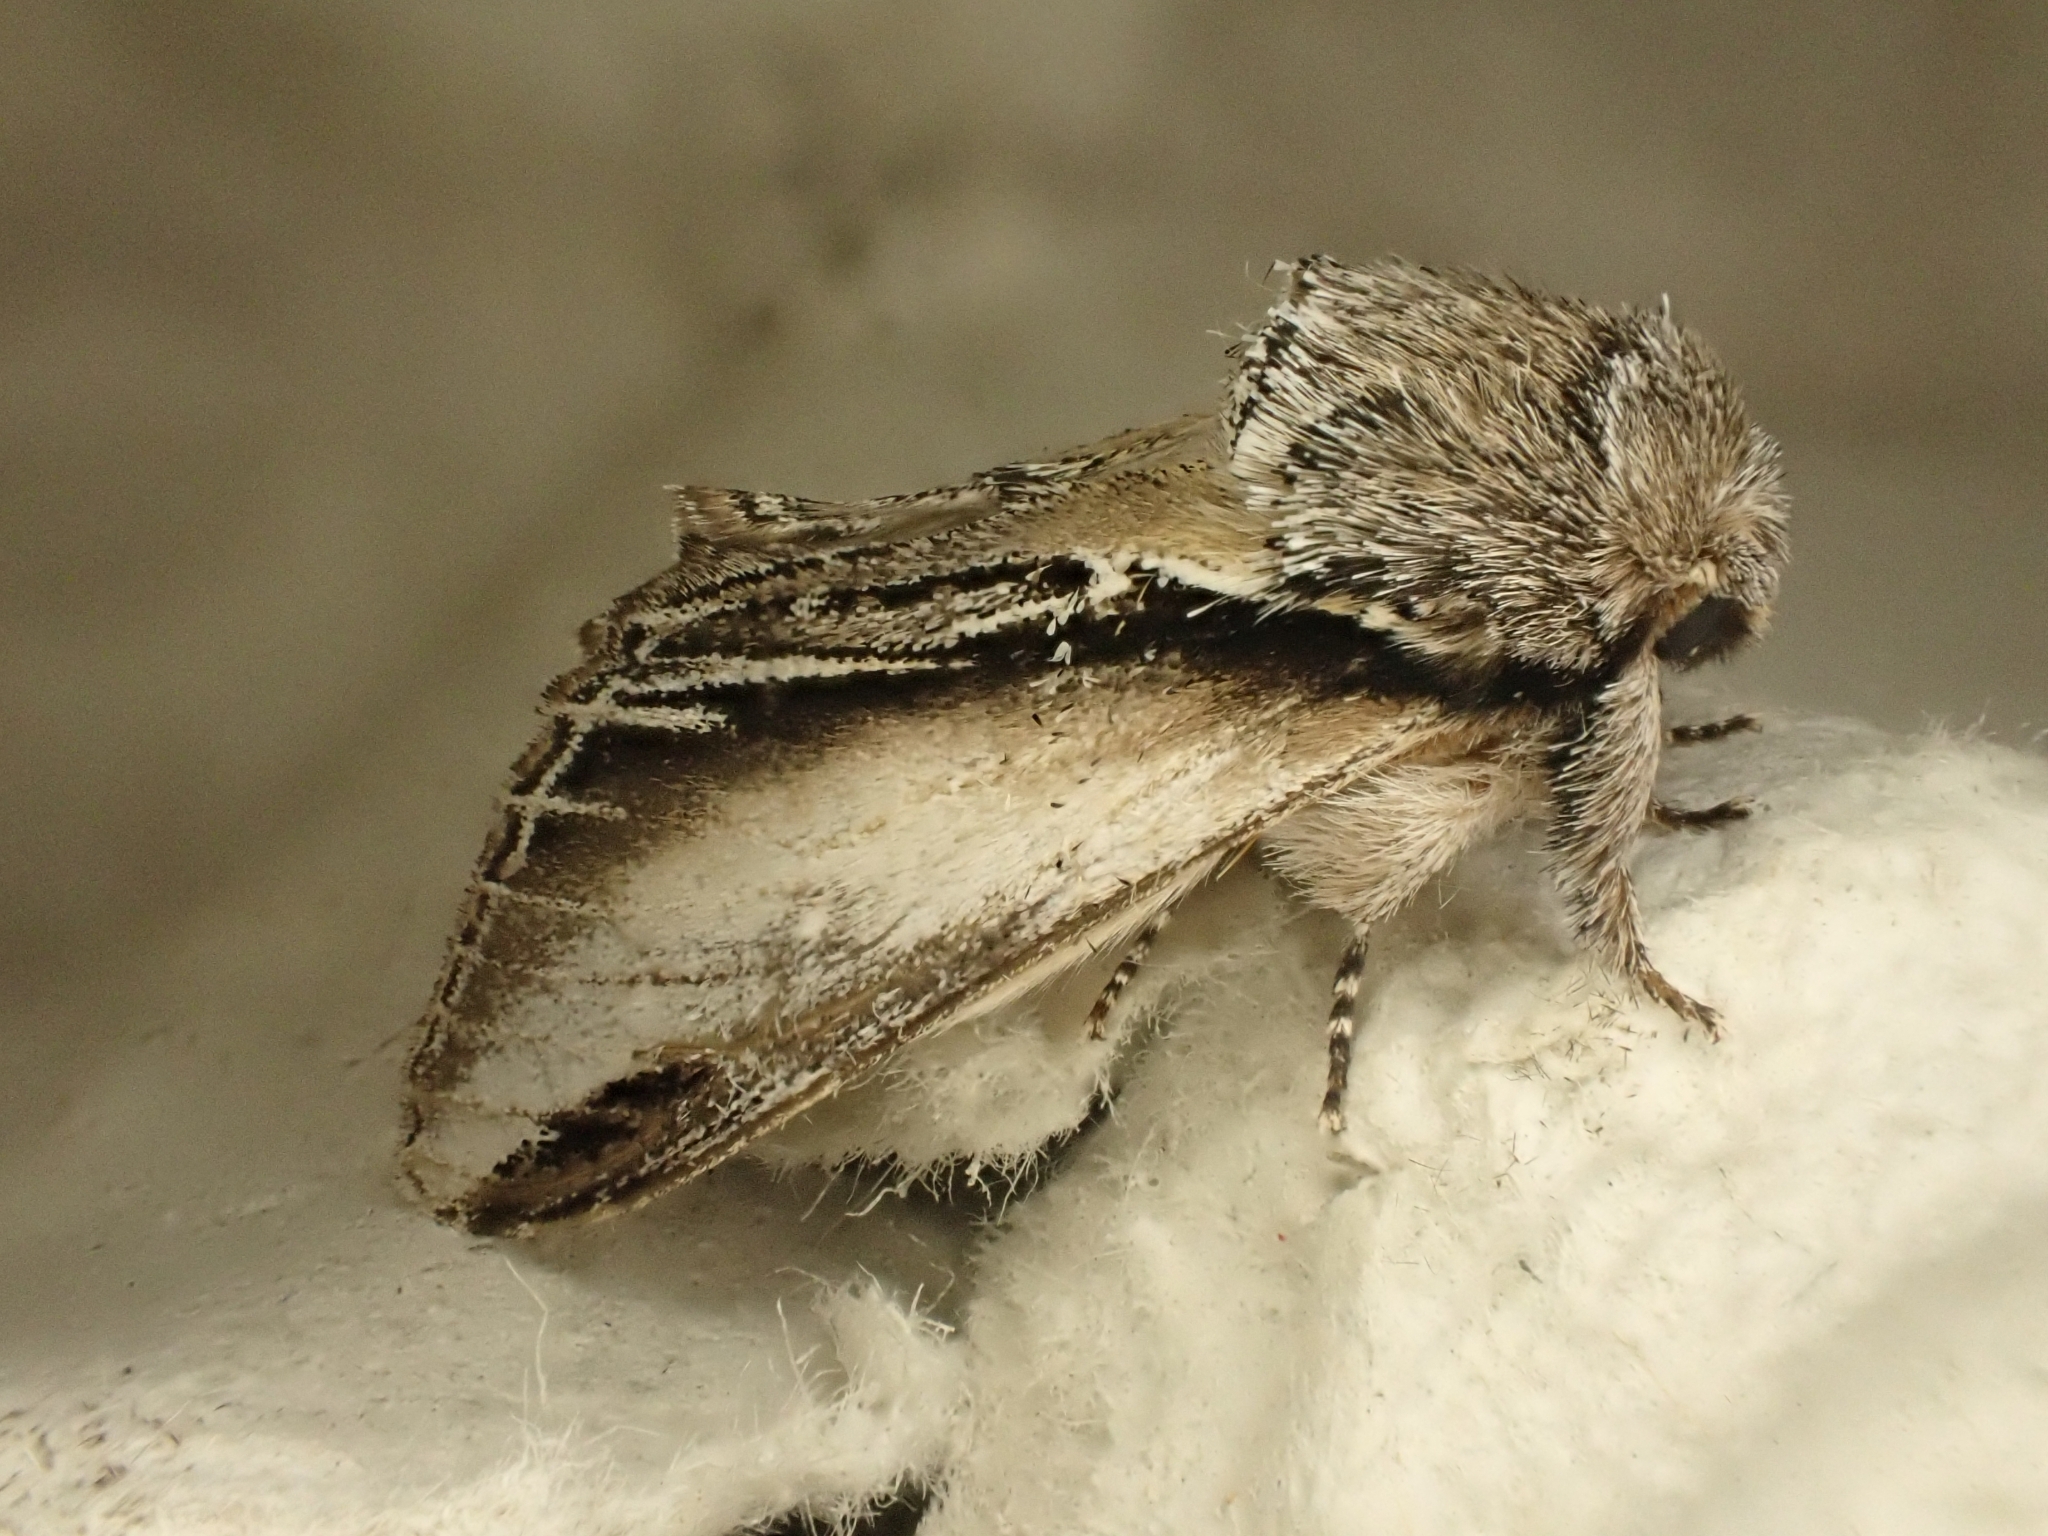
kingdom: Animalia
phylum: Arthropoda
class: Insecta
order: Lepidoptera
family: Notodontidae
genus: Pheosia
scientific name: Pheosia tremula
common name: Swallow prominent
